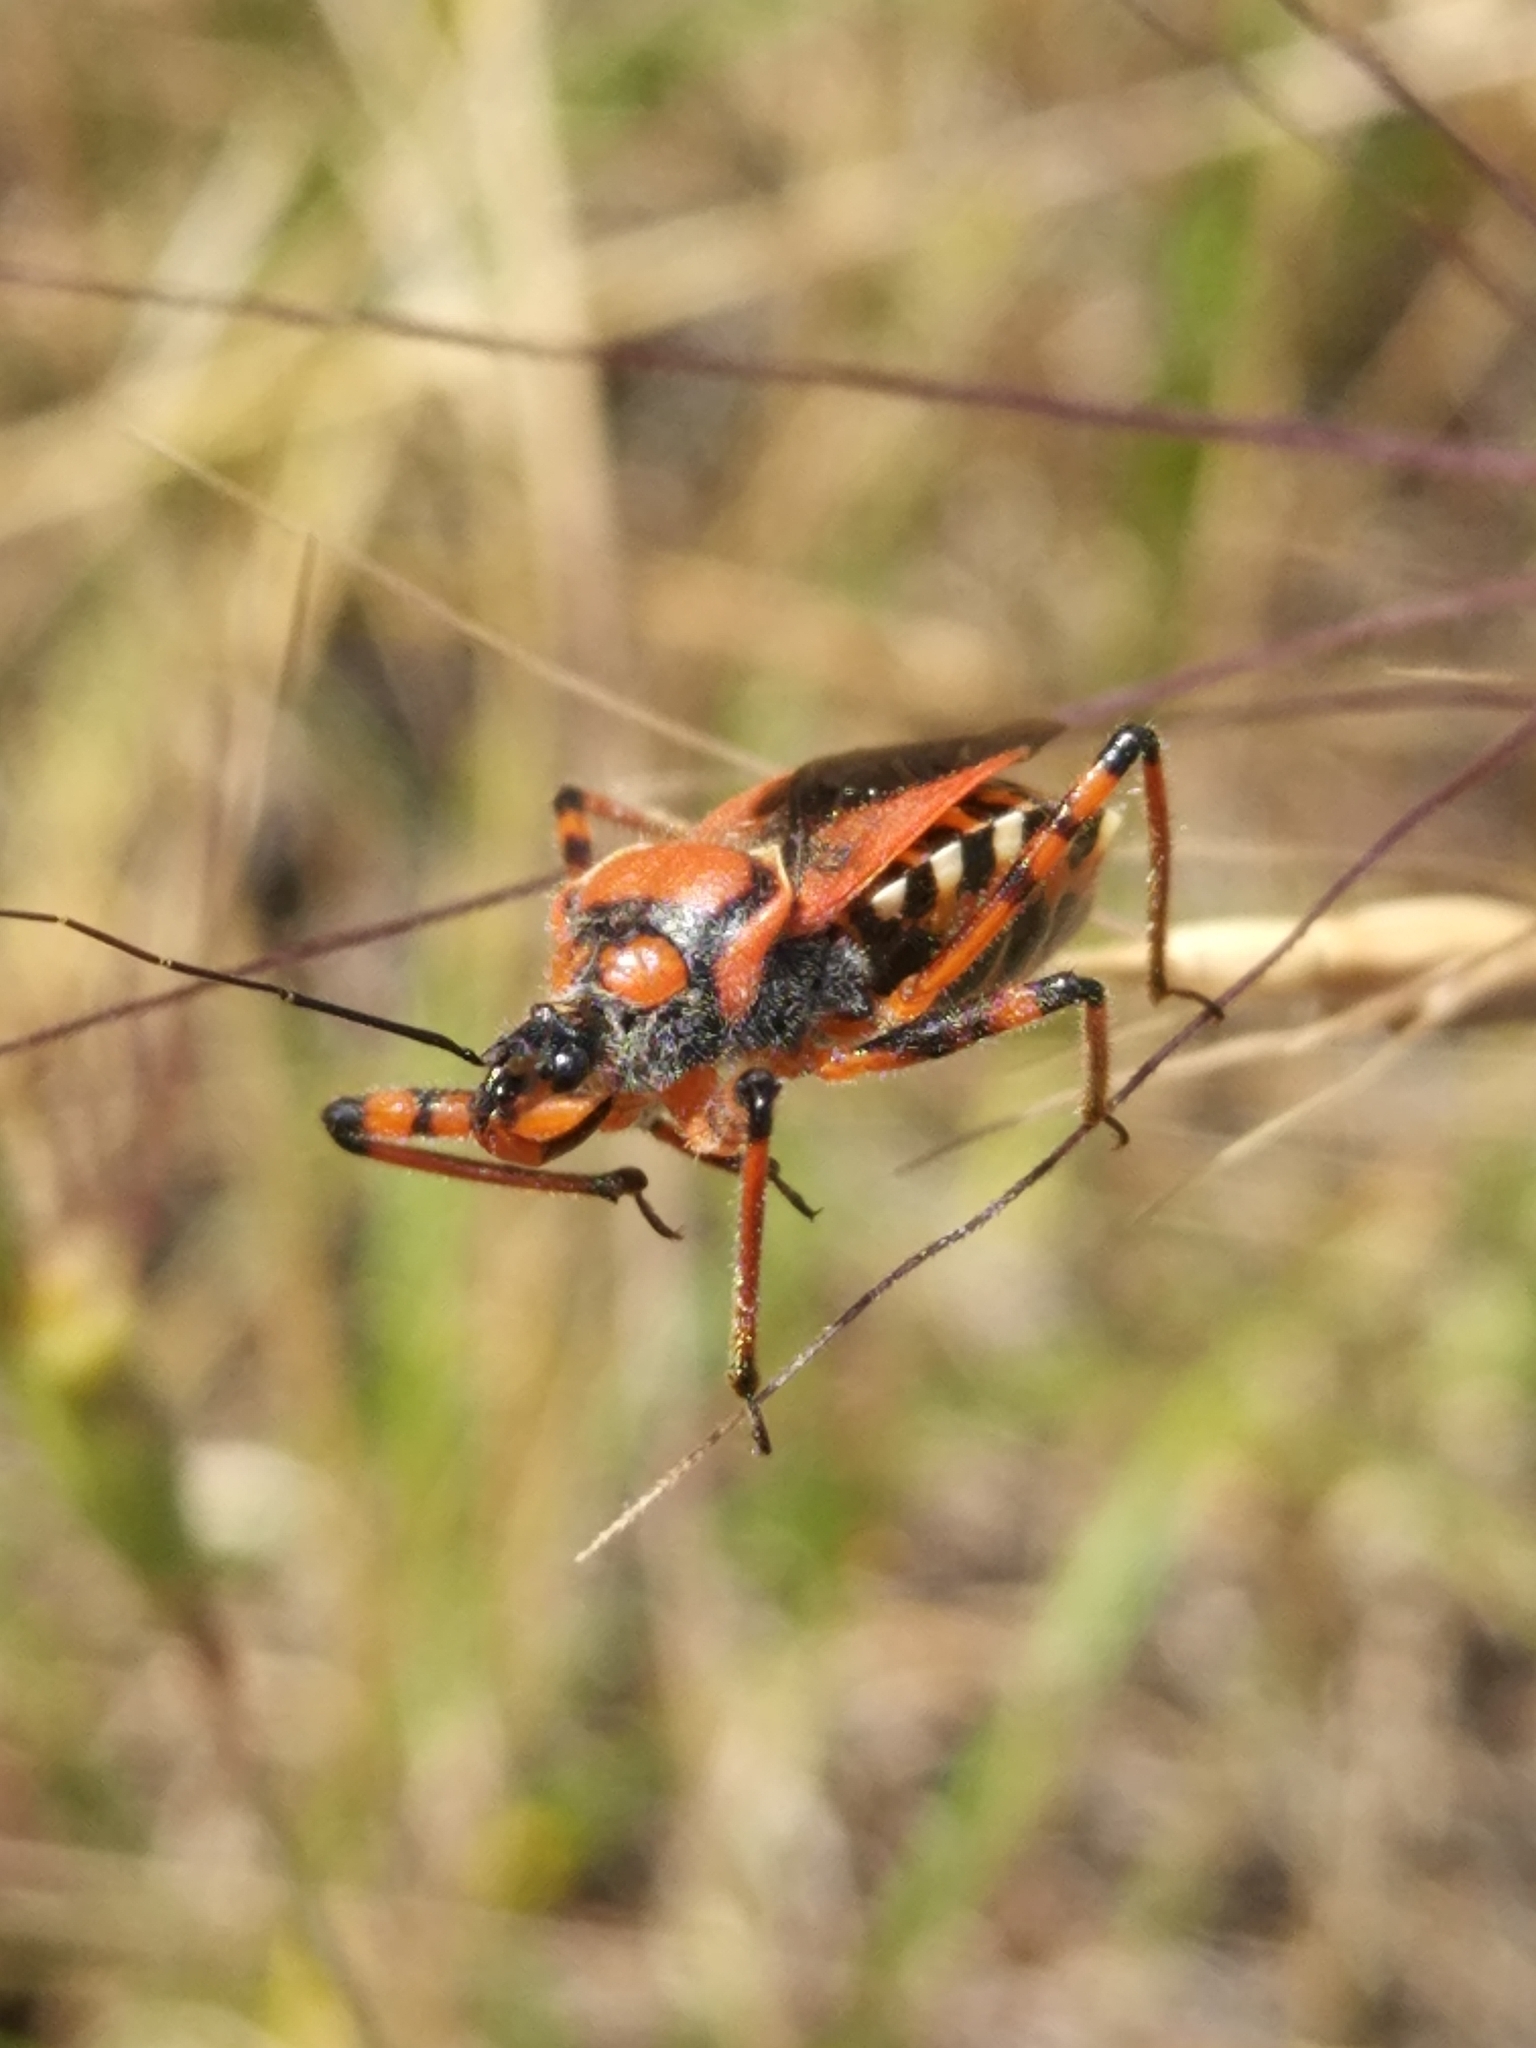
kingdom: Animalia
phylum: Arthropoda
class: Insecta
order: Hemiptera
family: Reduviidae
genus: Rhynocoris
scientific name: Rhynocoris iracundus
